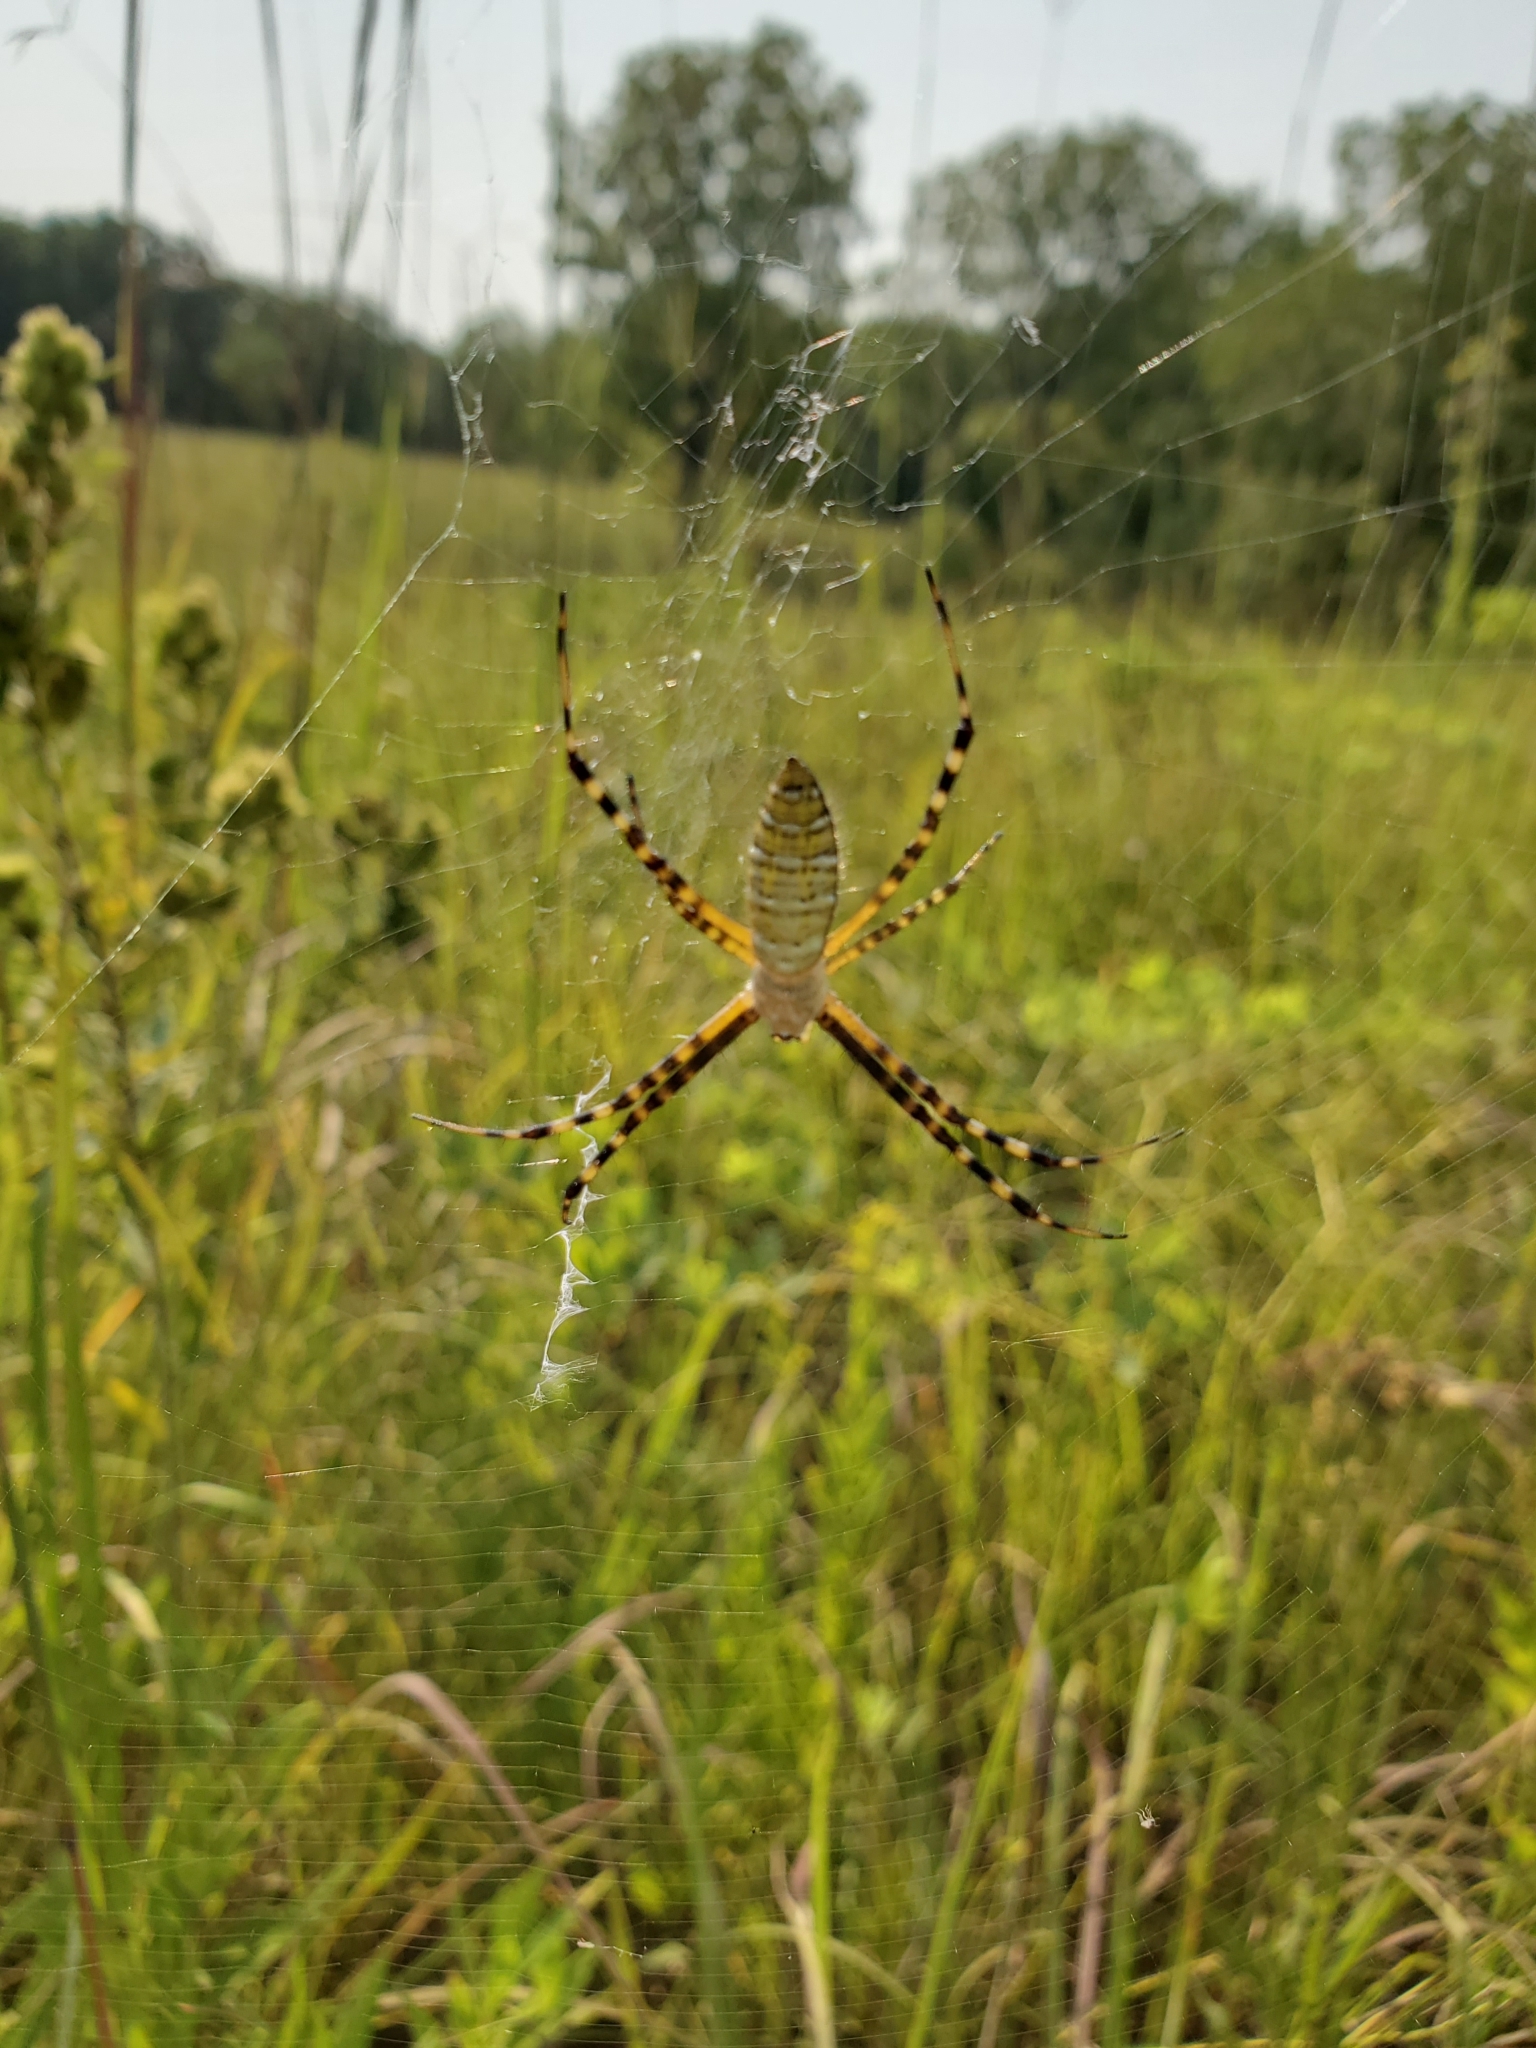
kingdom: Animalia
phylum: Arthropoda
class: Arachnida
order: Araneae
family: Araneidae
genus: Argiope
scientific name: Argiope trifasciata
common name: Banded garden spider
